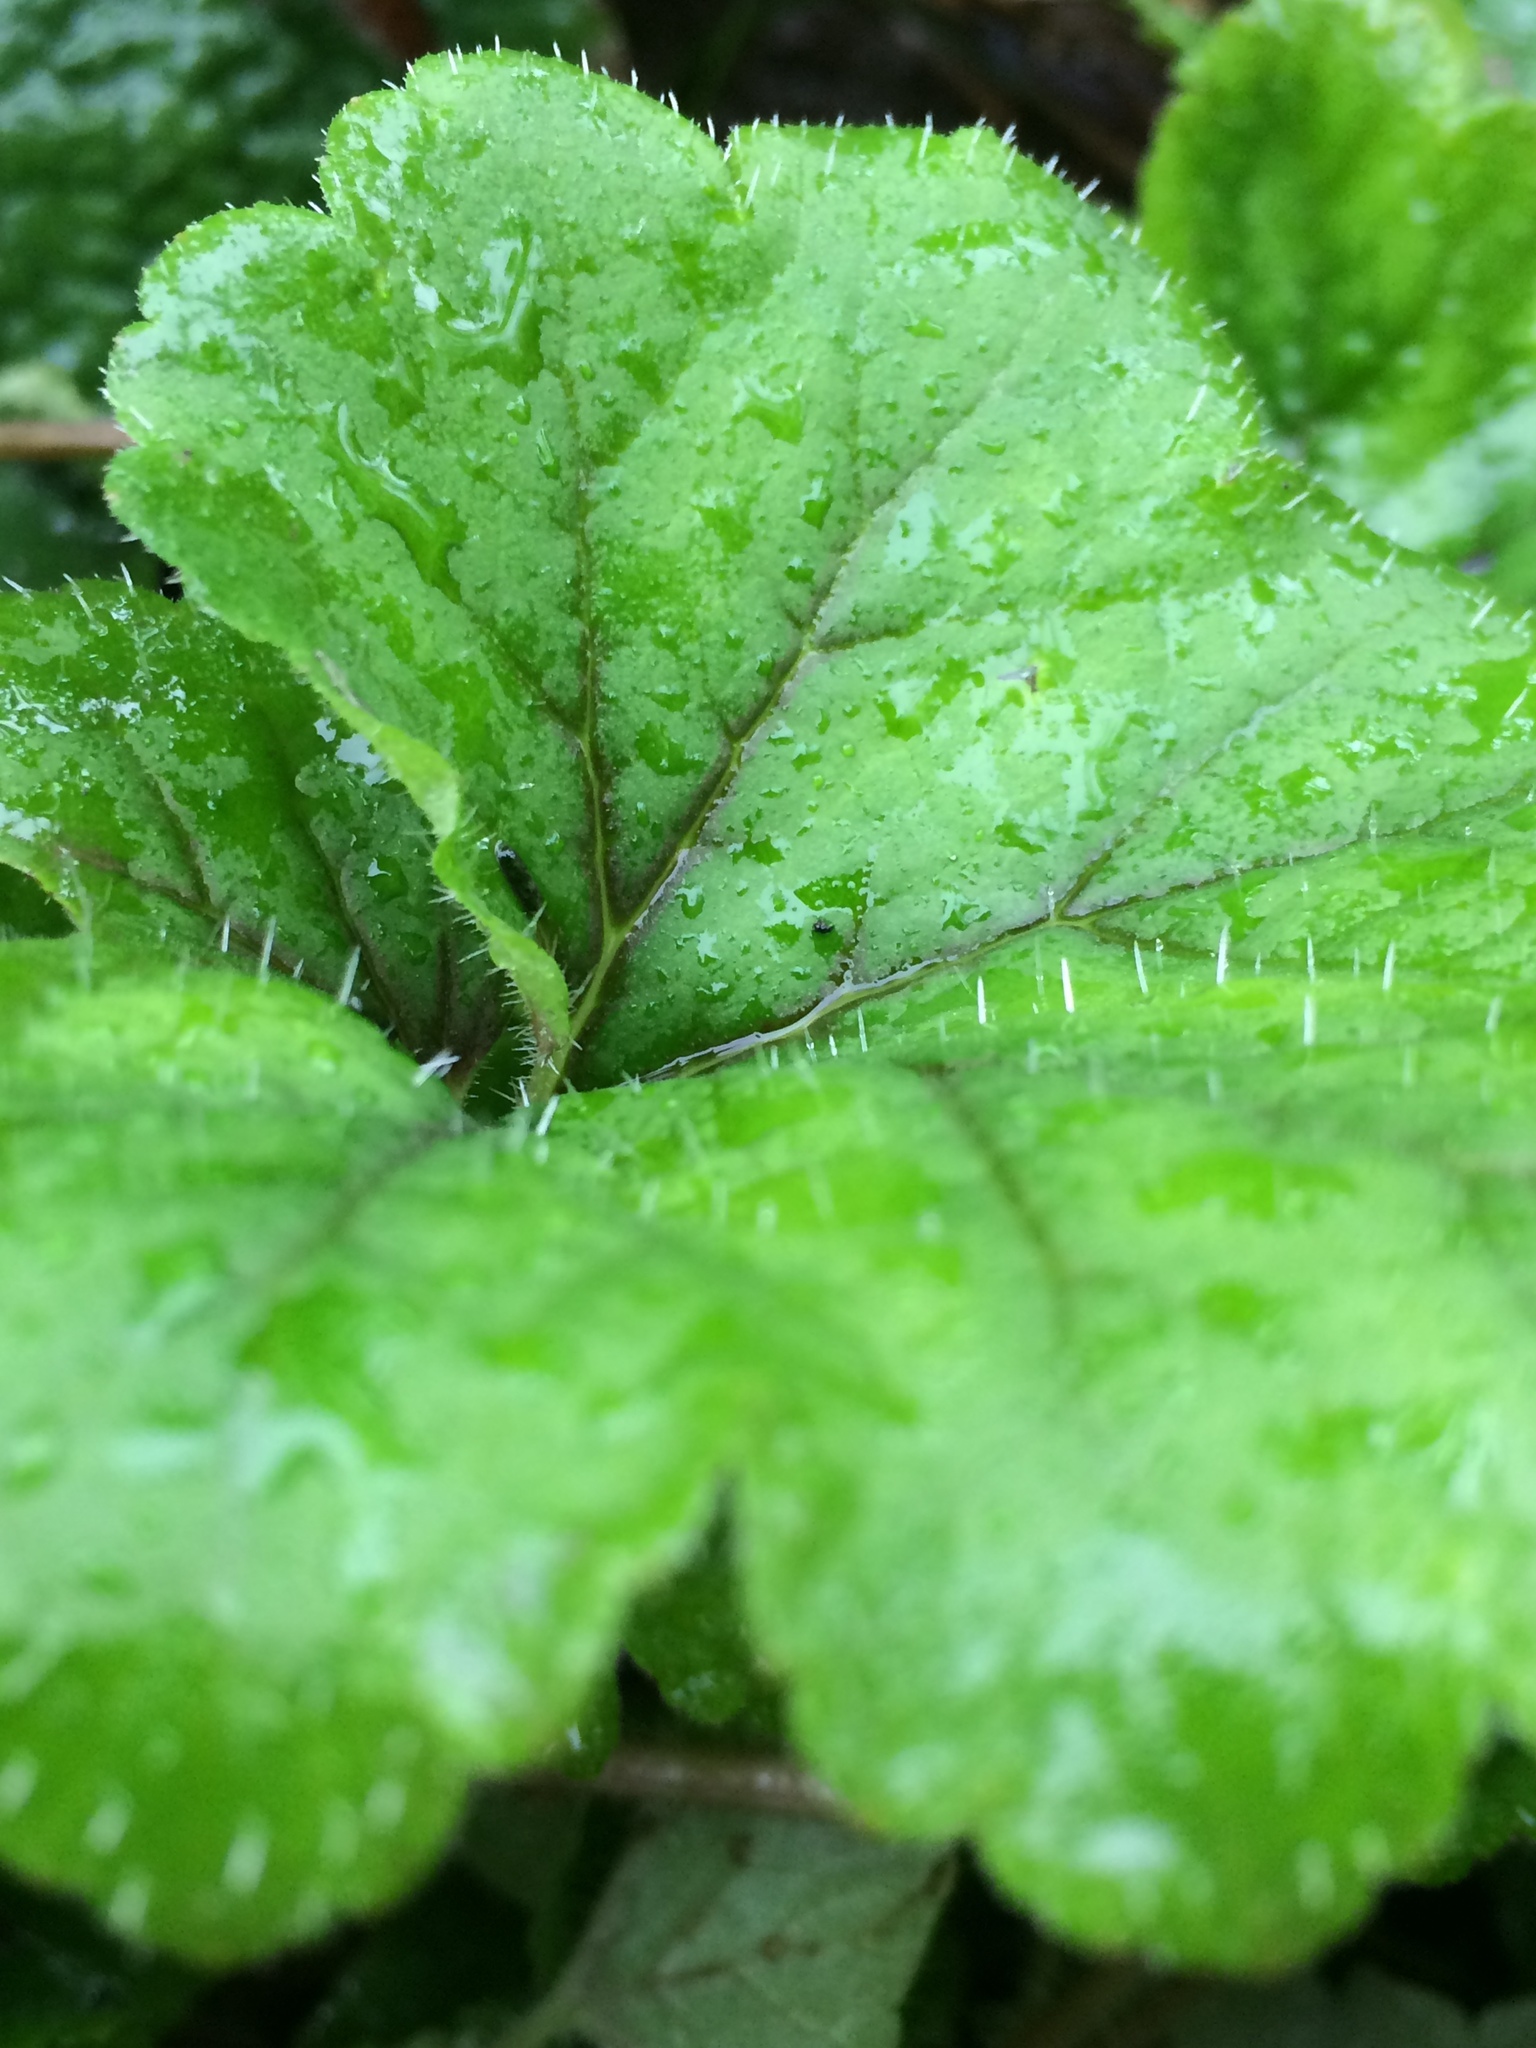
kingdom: Plantae
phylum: Tracheophyta
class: Magnoliopsida
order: Saxifragales
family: Saxifragaceae
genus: Tellima
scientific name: Tellima grandiflora
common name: Fringecups
